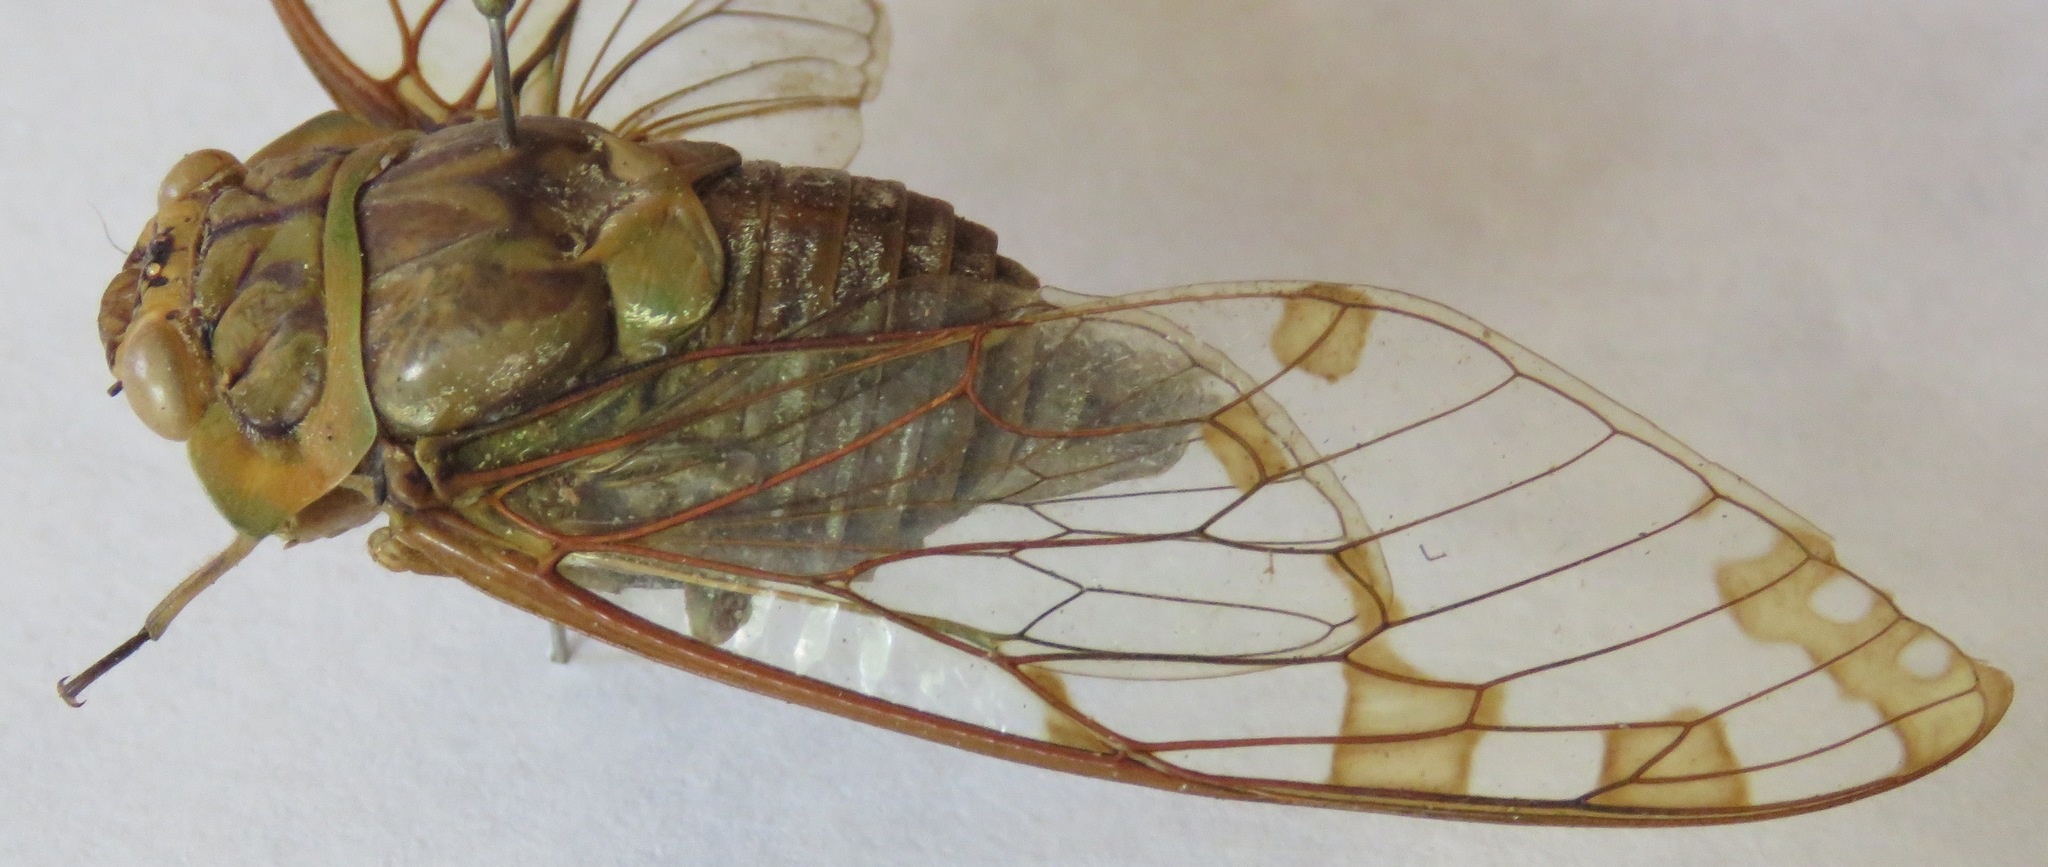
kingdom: Animalia
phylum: Arthropoda
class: Insecta
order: Hemiptera
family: Cicadidae
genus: Zammara
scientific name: Zammara smaragdina
